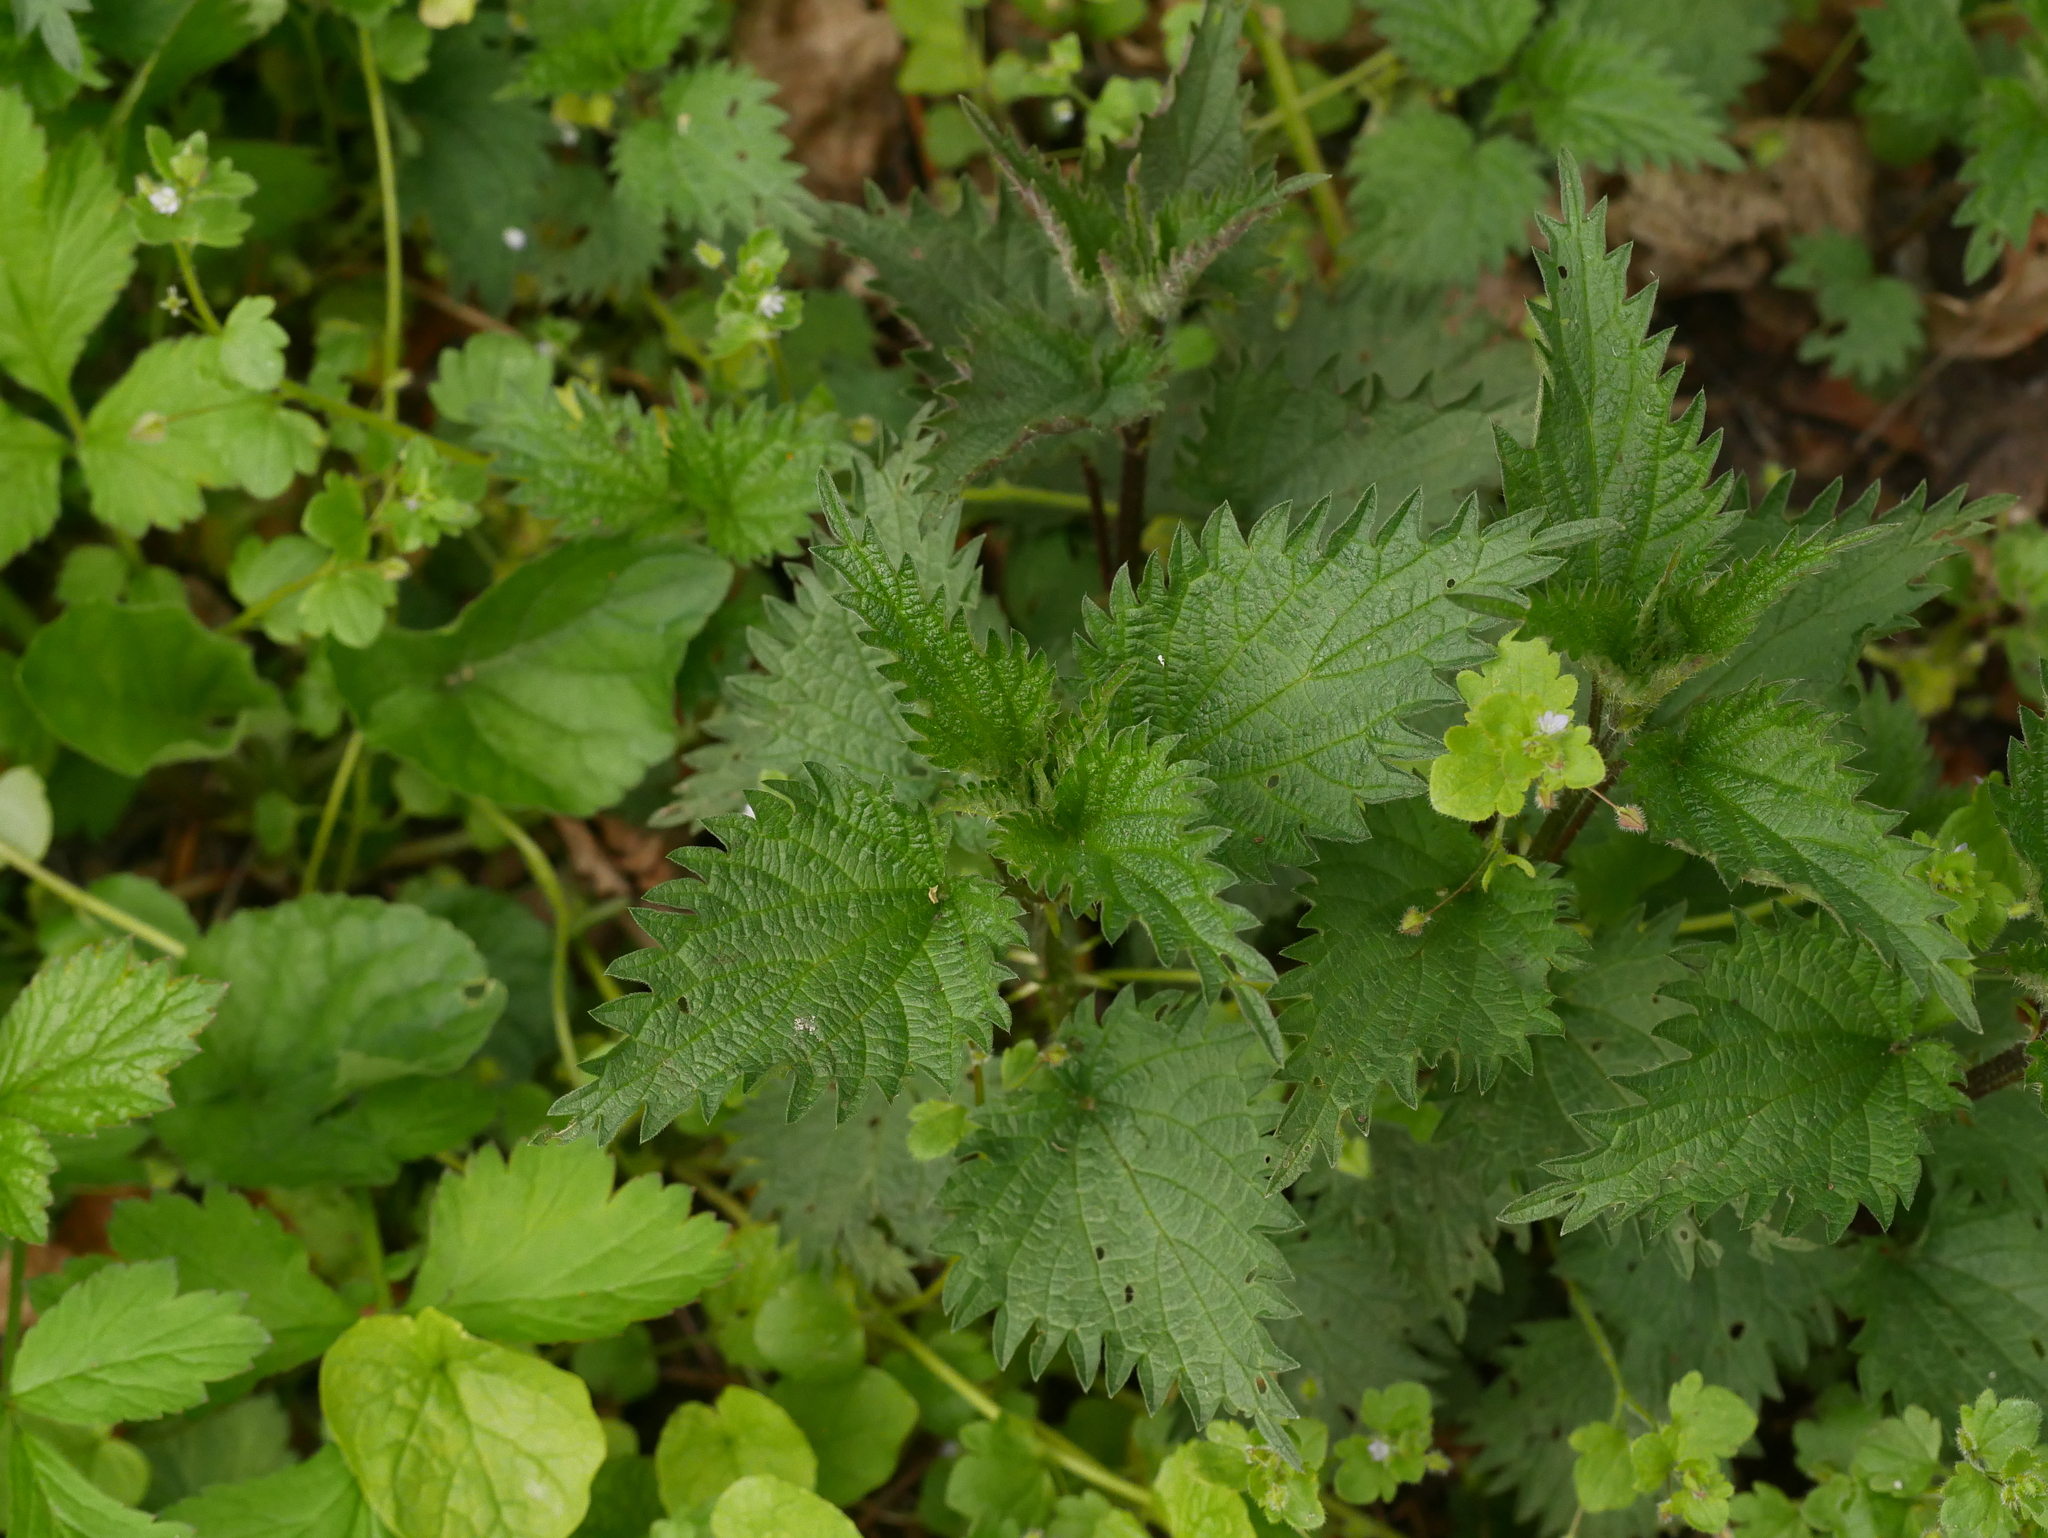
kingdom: Plantae
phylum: Tracheophyta
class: Magnoliopsida
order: Rosales
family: Urticaceae
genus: Urtica
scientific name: Urtica dioica
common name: Common nettle
